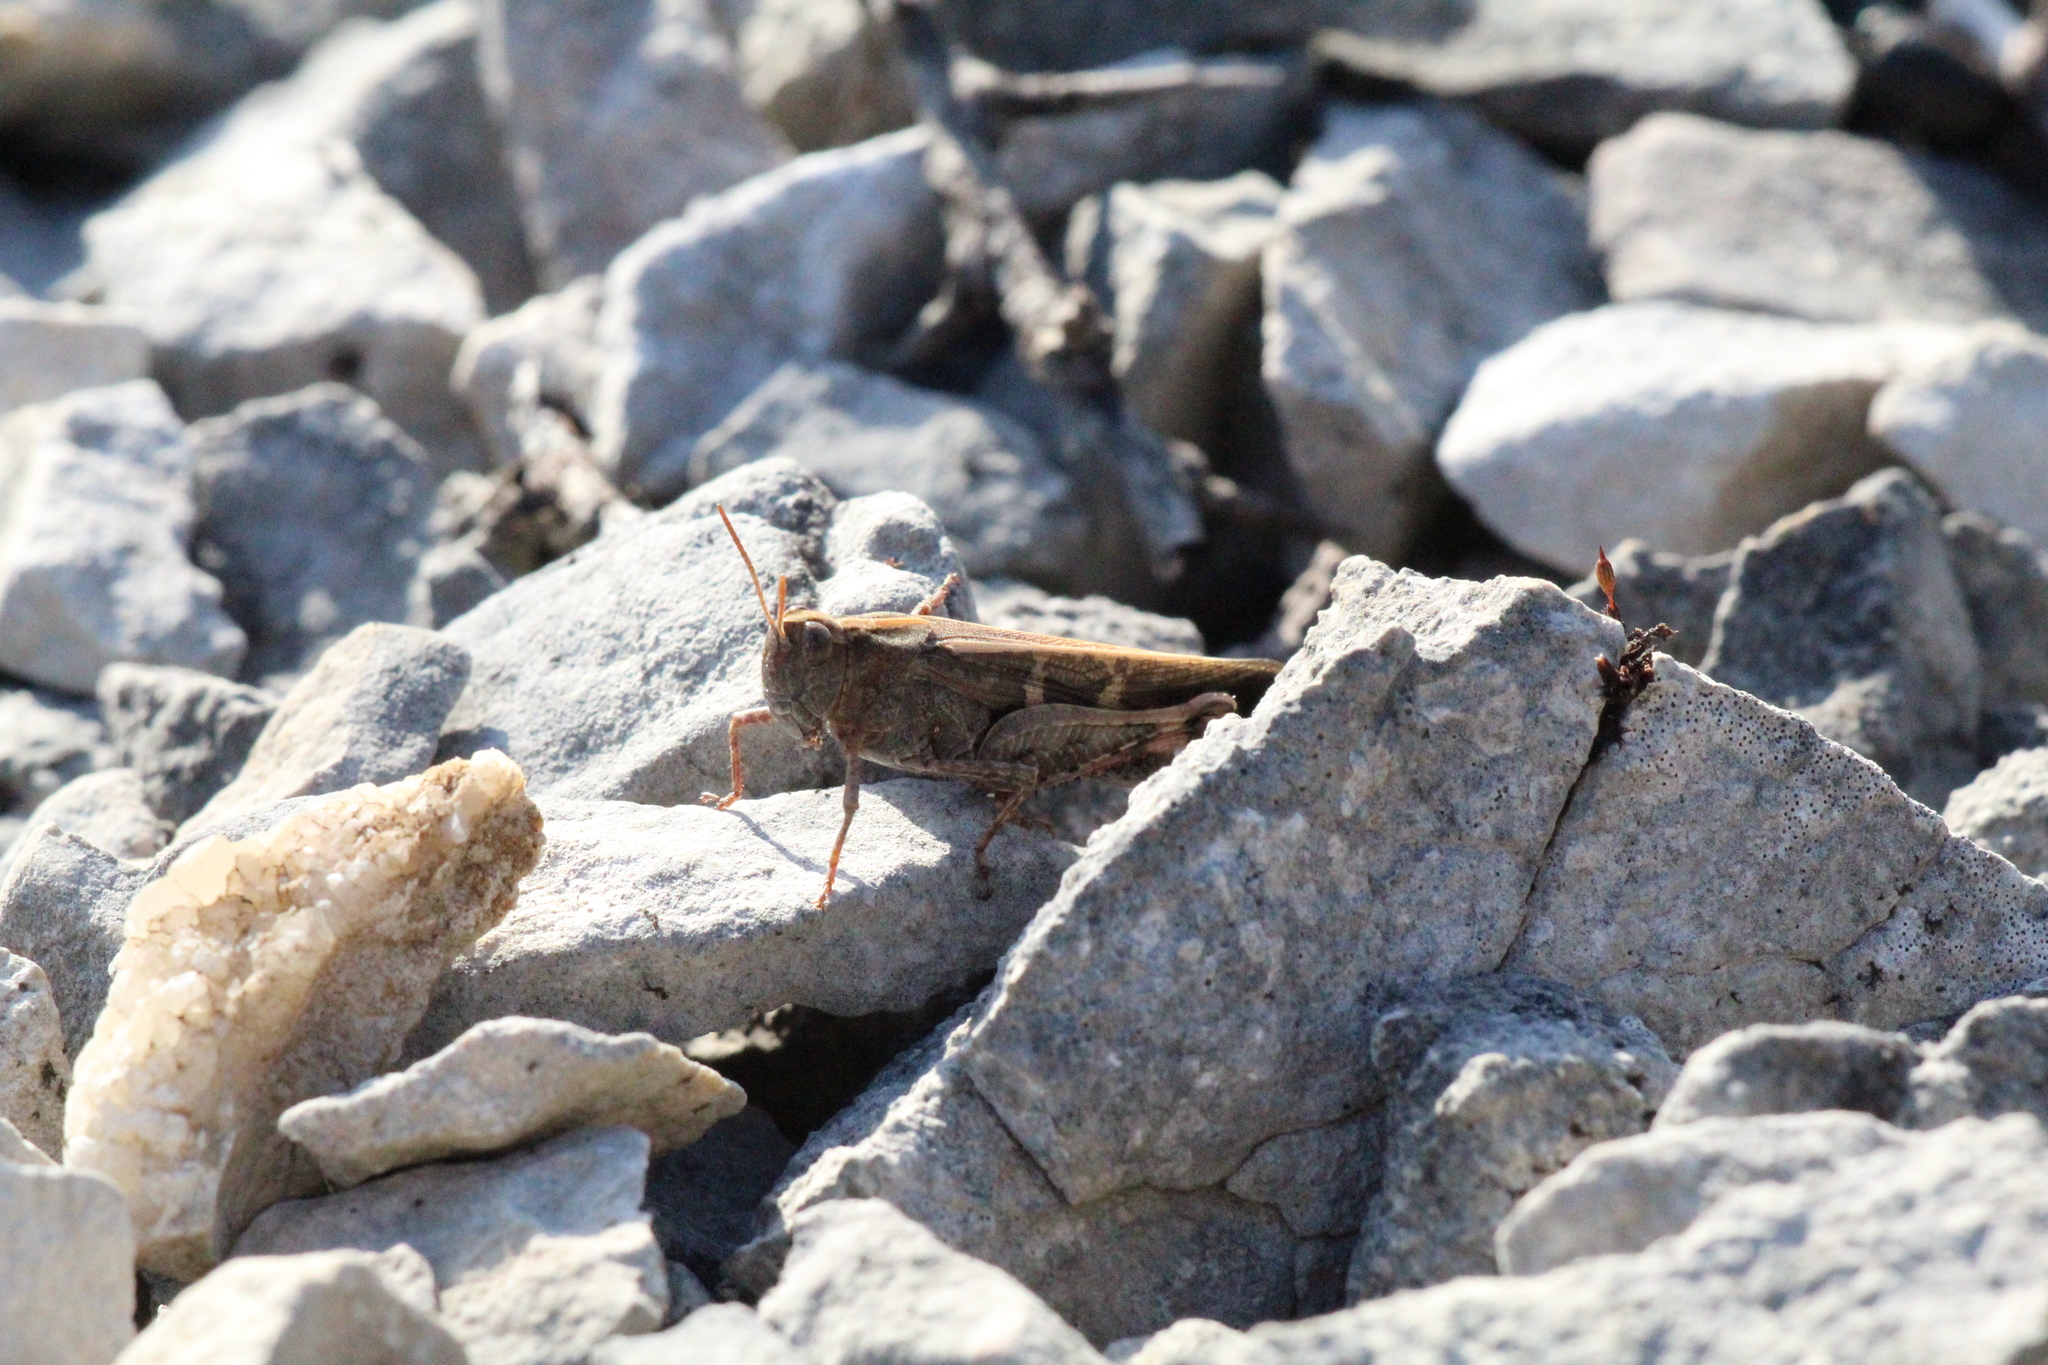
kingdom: Animalia
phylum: Arthropoda
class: Insecta
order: Orthoptera
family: Acrididae
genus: Aiolopus
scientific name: Aiolopus strepens
